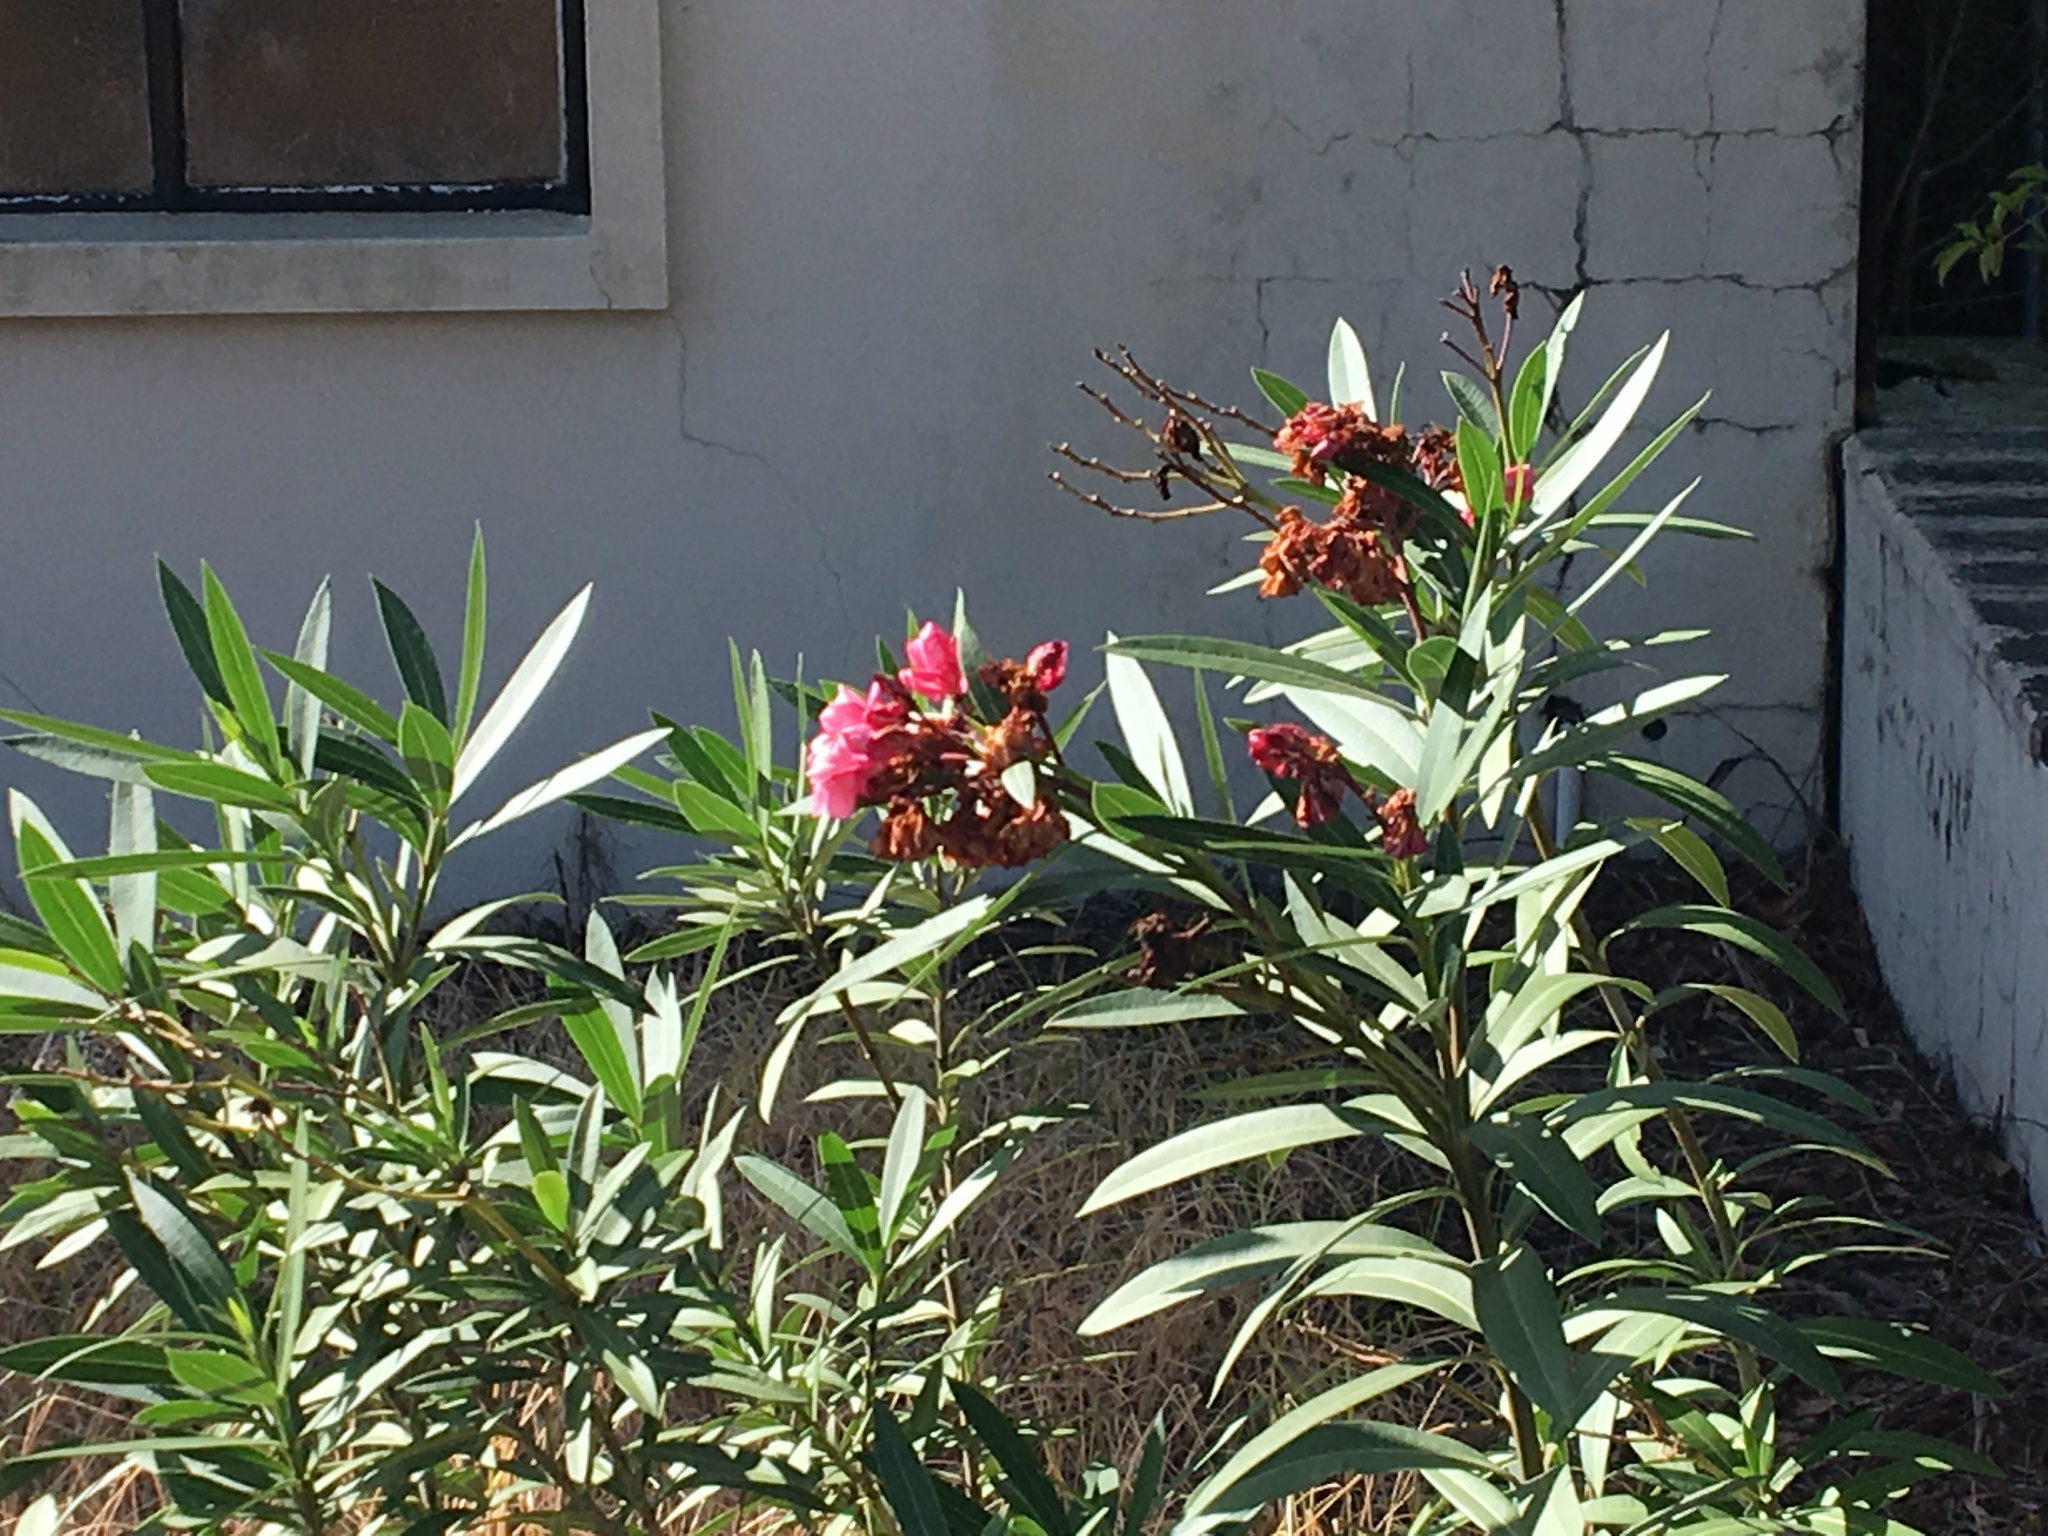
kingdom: Plantae
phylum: Tracheophyta
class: Magnoliopsida
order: Gentianales
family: Apocynaceae
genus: Nerium
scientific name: Nerium oleander
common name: Oleander
